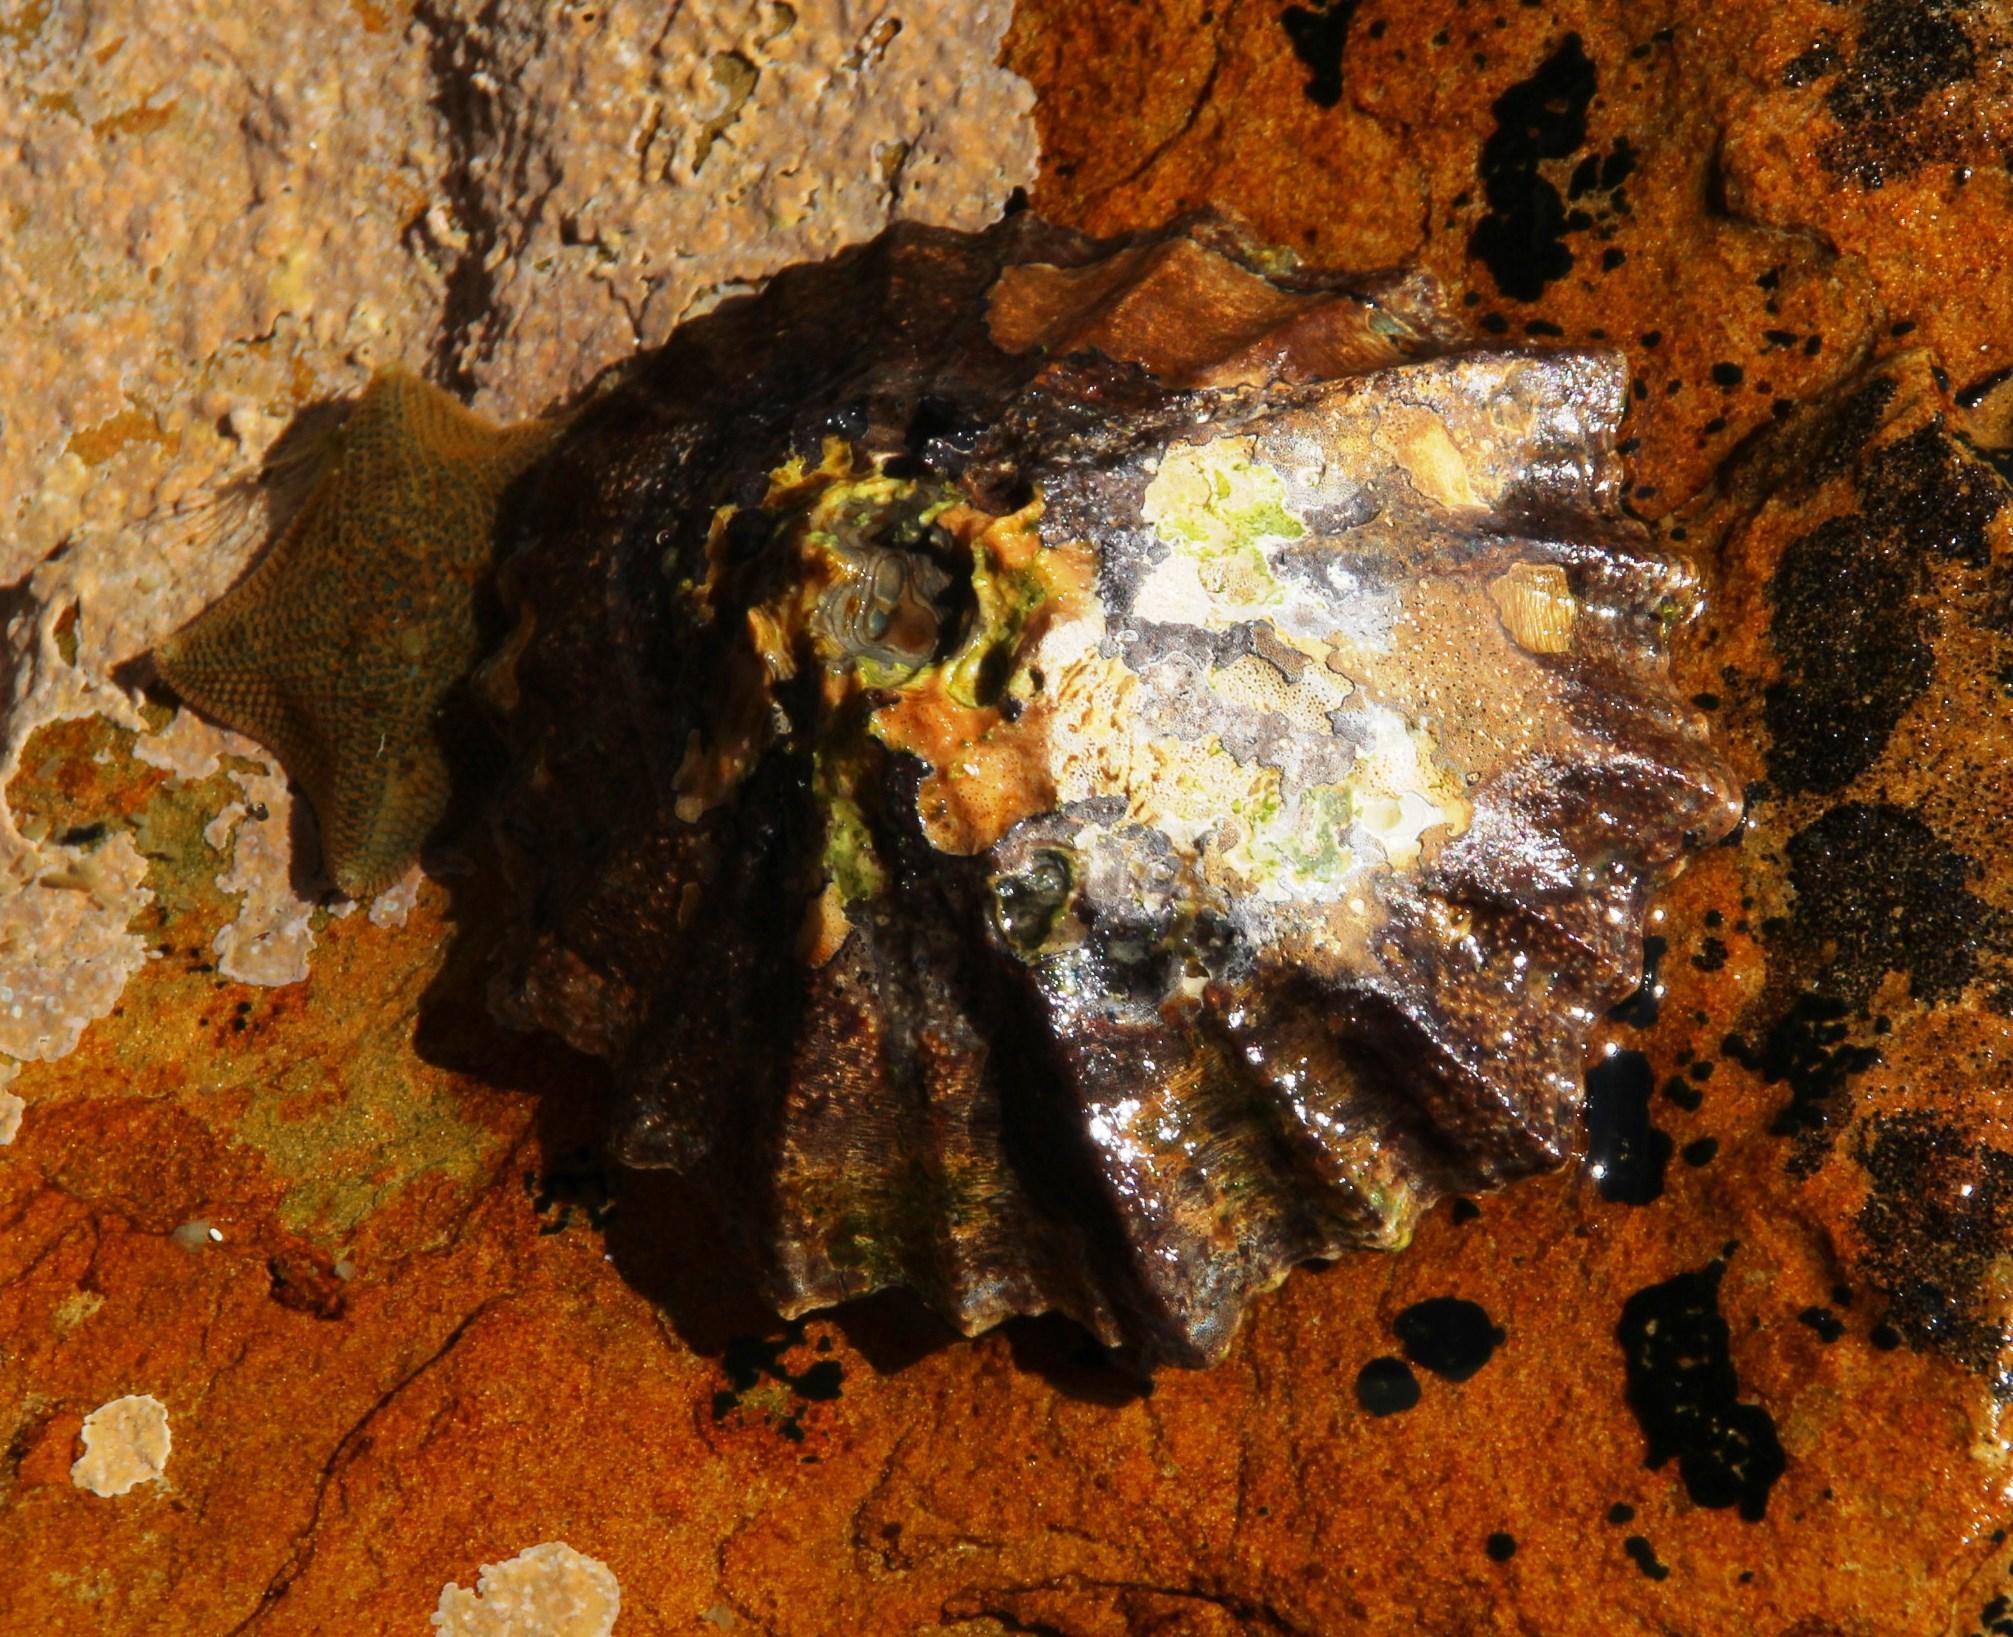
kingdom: Animalia
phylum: Mollusca
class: Gastropoda
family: Patellidae
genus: Cymbula
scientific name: Cymbula granatina
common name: Granite limpet
